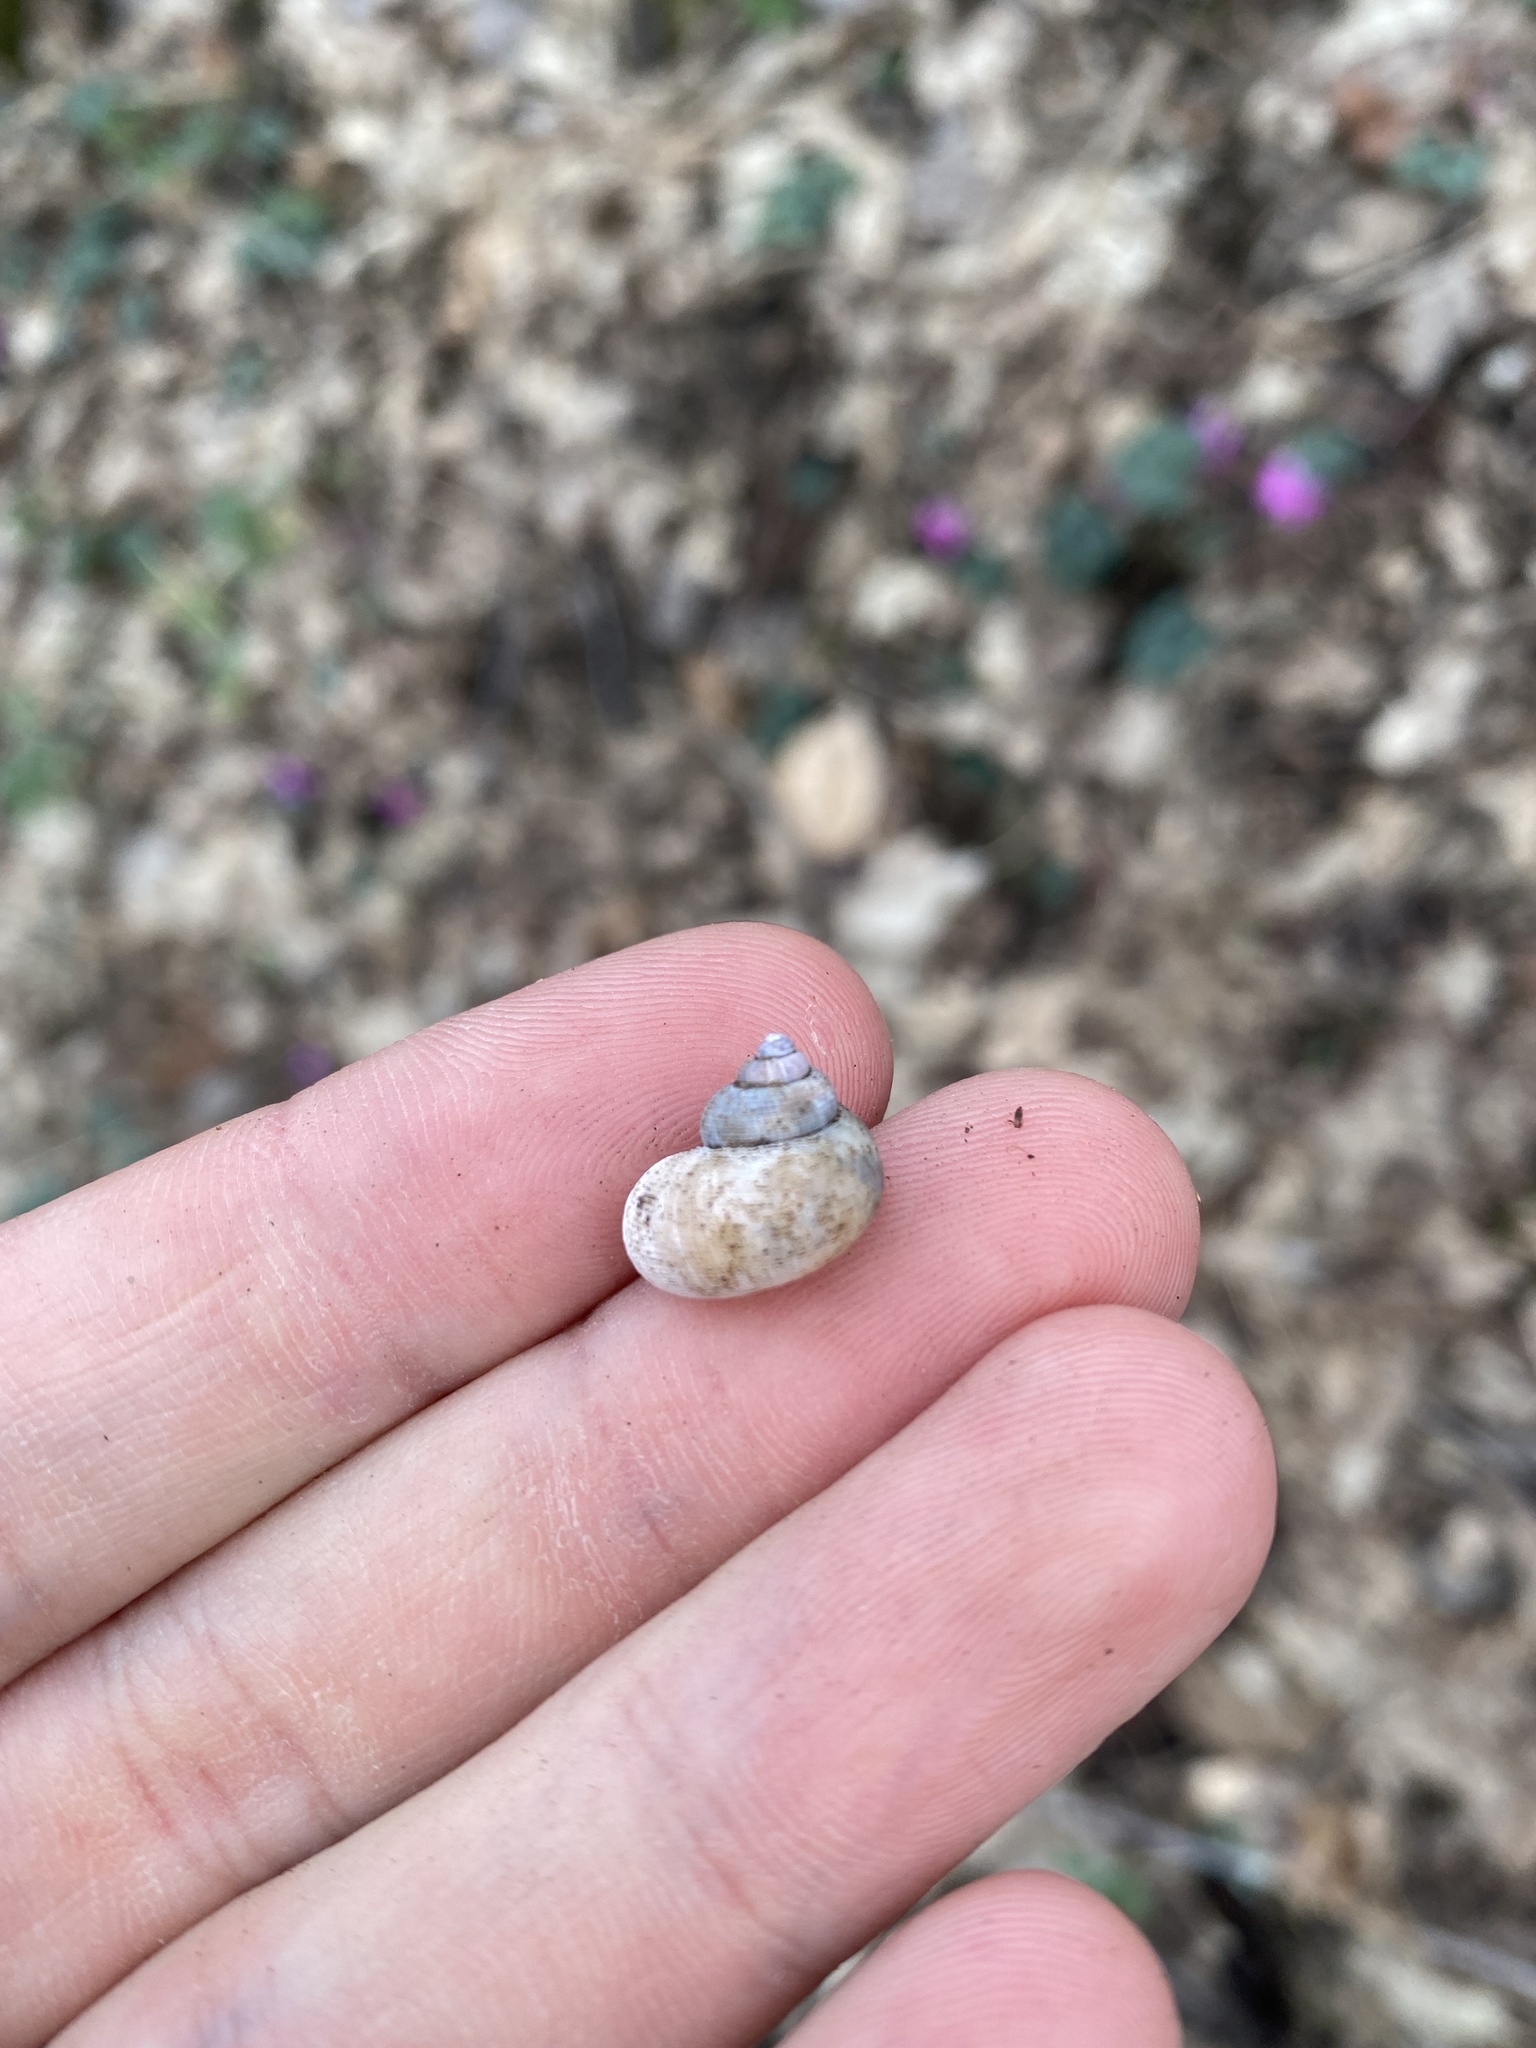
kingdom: Animalia
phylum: Mollusca
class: Gastropoda
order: Littorinimorpha
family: Pomatiidae
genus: Pomatias
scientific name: Pomatias rivularis
